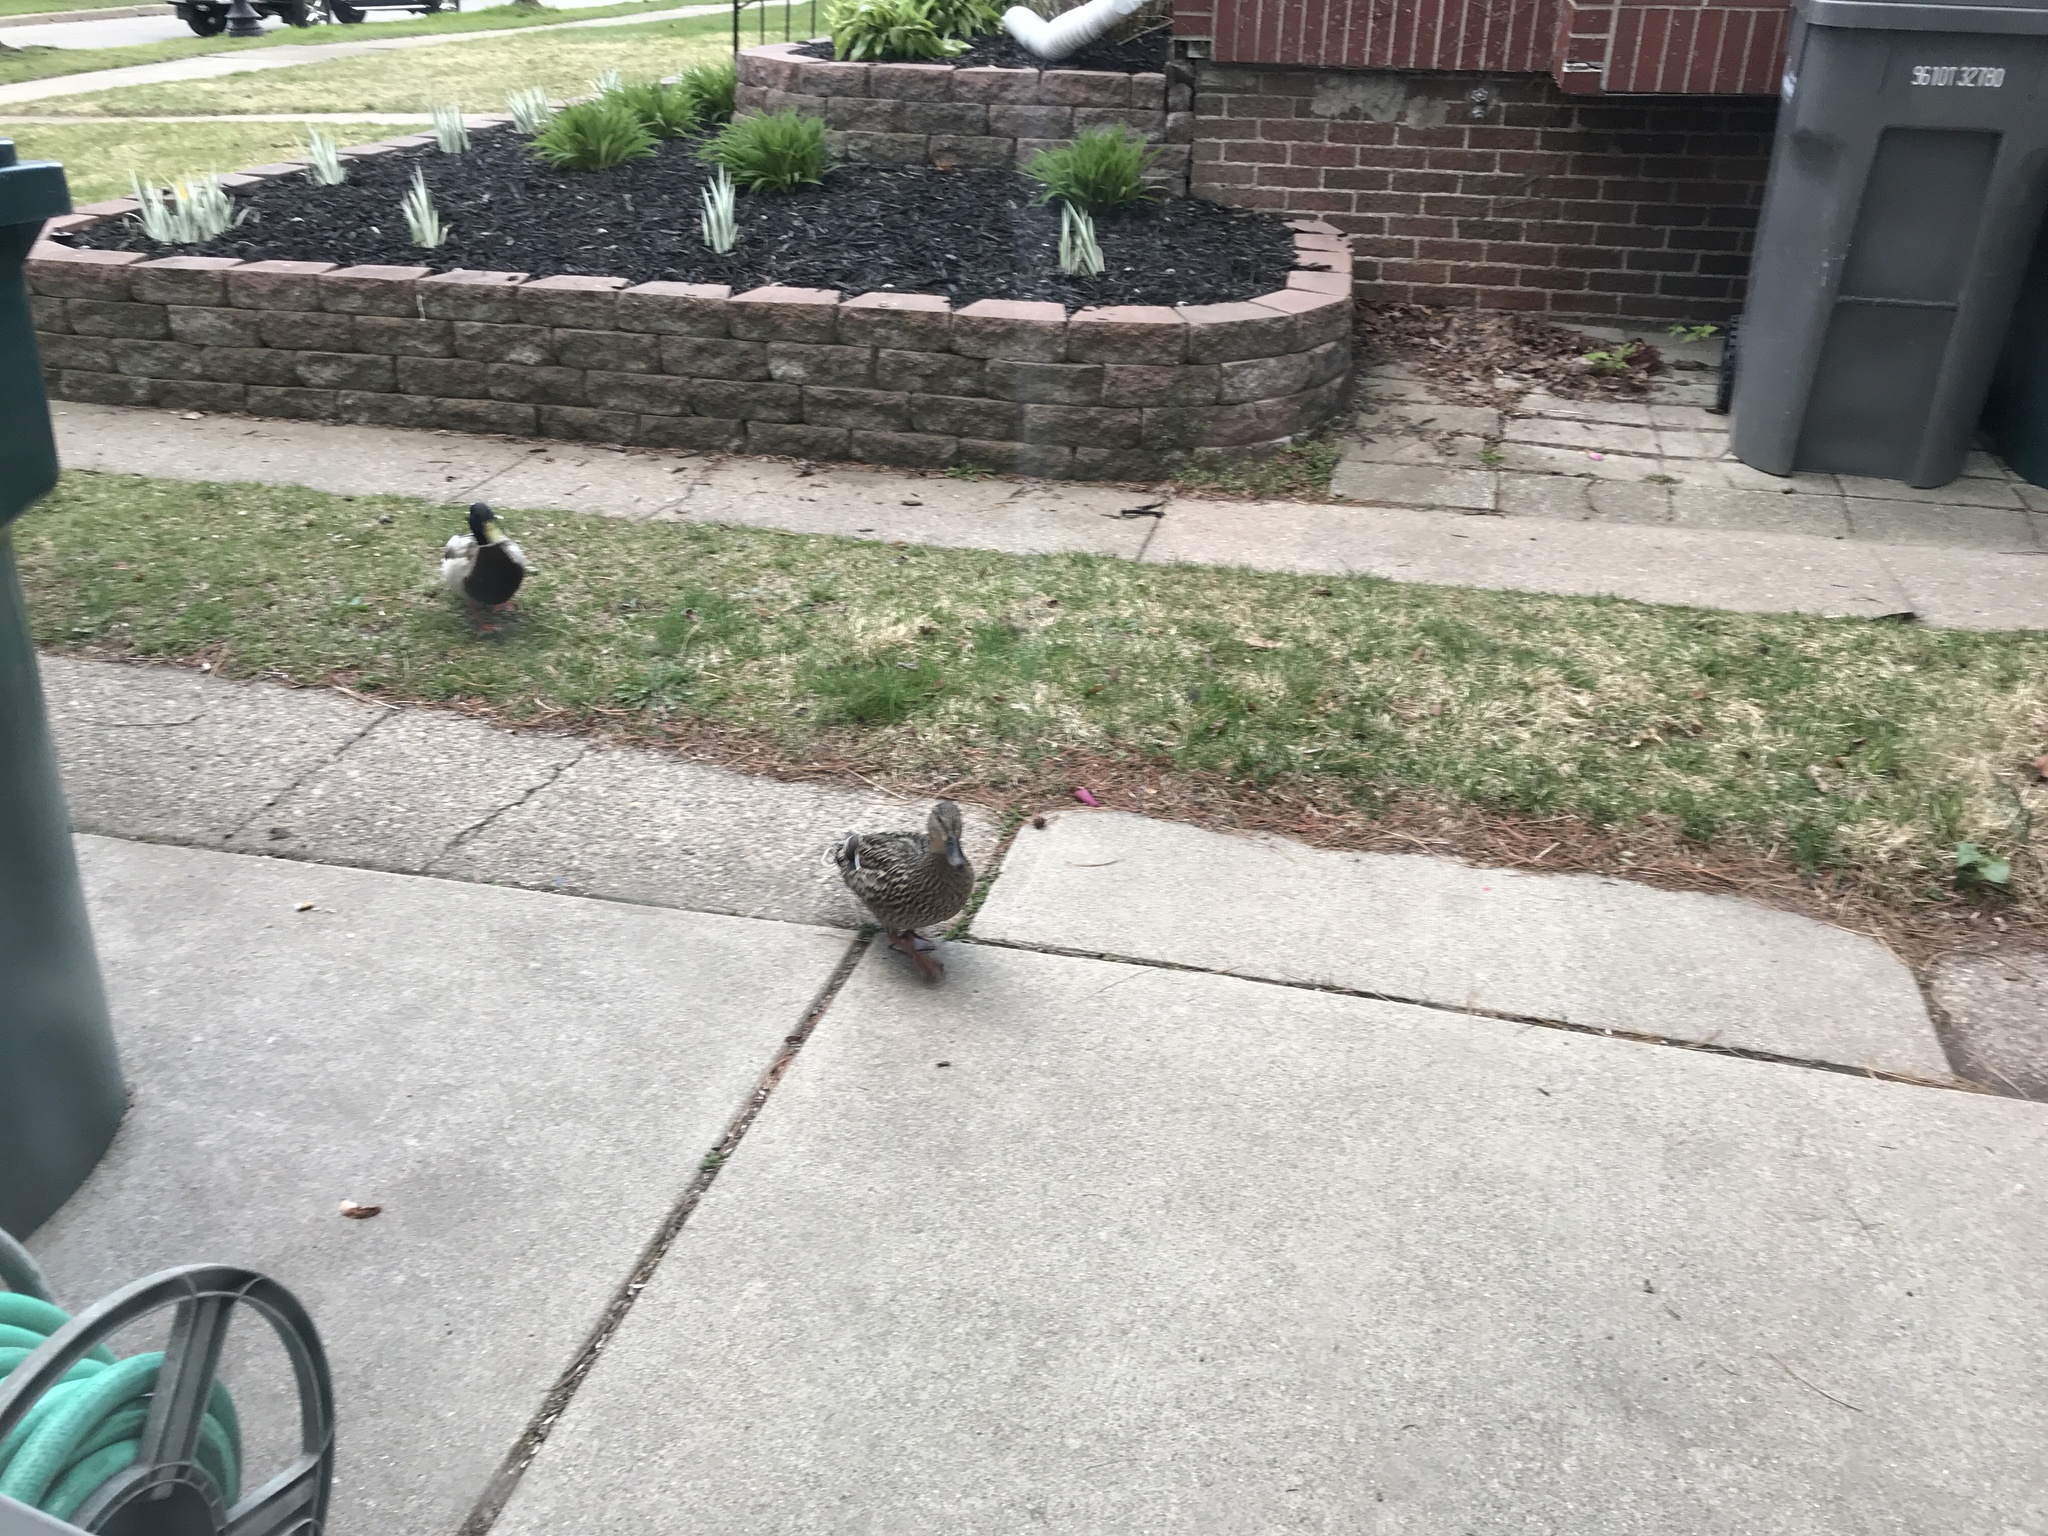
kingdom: Animalia
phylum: Chordata
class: Aves
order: Anseriformes
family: Anatidae
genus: Anas
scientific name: Anas platyrhynchos
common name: Mallard
